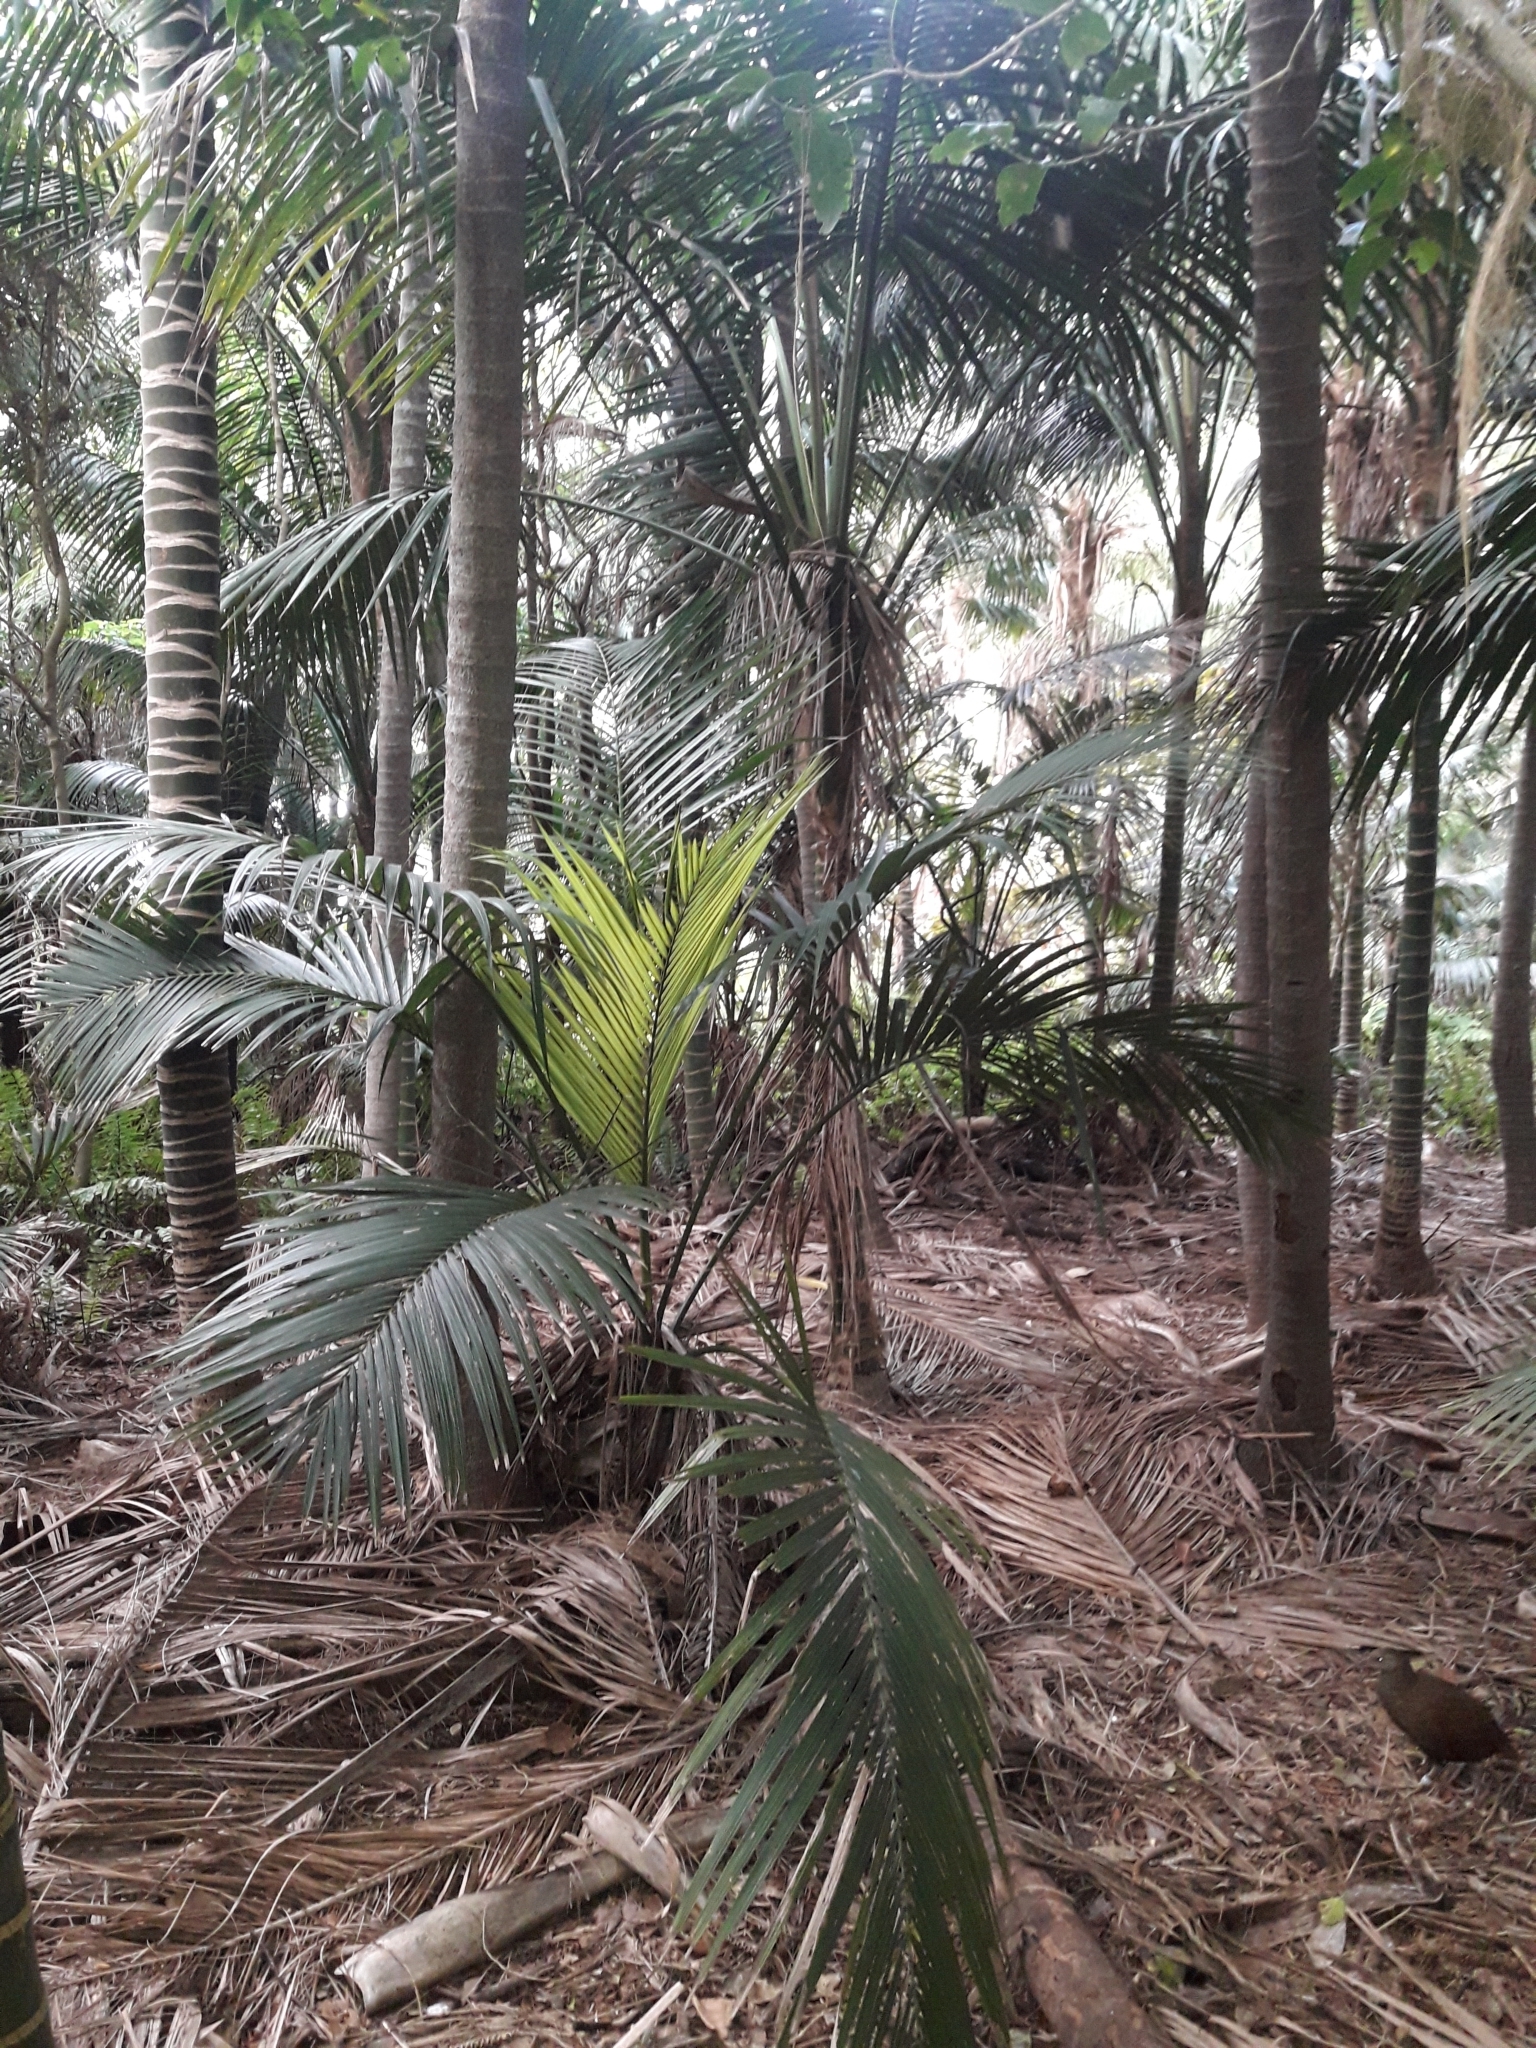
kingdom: Plantae
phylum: Tracheophyta
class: Liliopsida
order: Arecales
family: Arecaceae
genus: Howea
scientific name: Howea forsteriana
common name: Kentia palm
